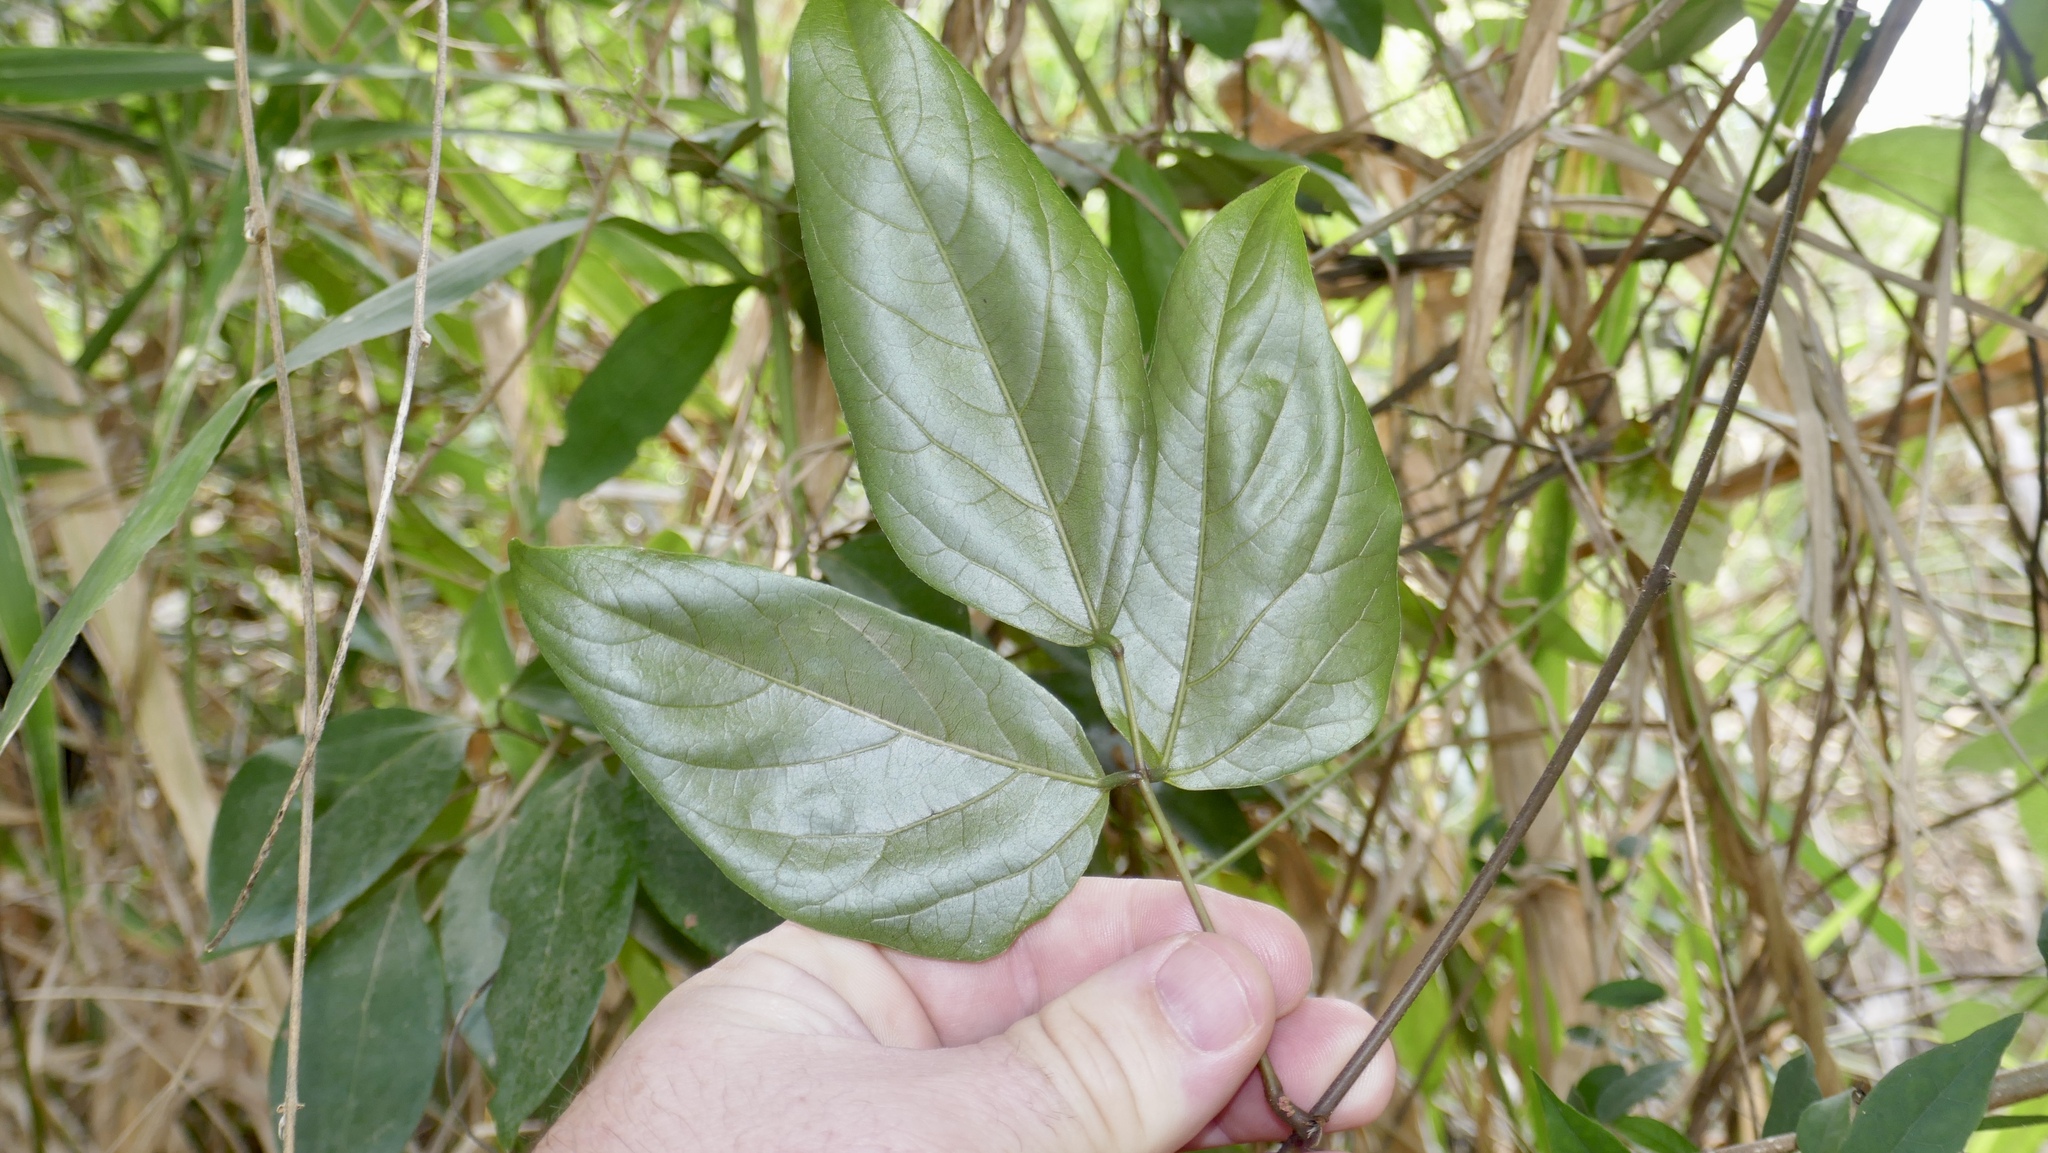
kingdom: Plantae
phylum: Tracheophyta
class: Magnoliopsida
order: Fabales
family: Fabaceae
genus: Mucuna
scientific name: Mucuna gigantea
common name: Black-bean
